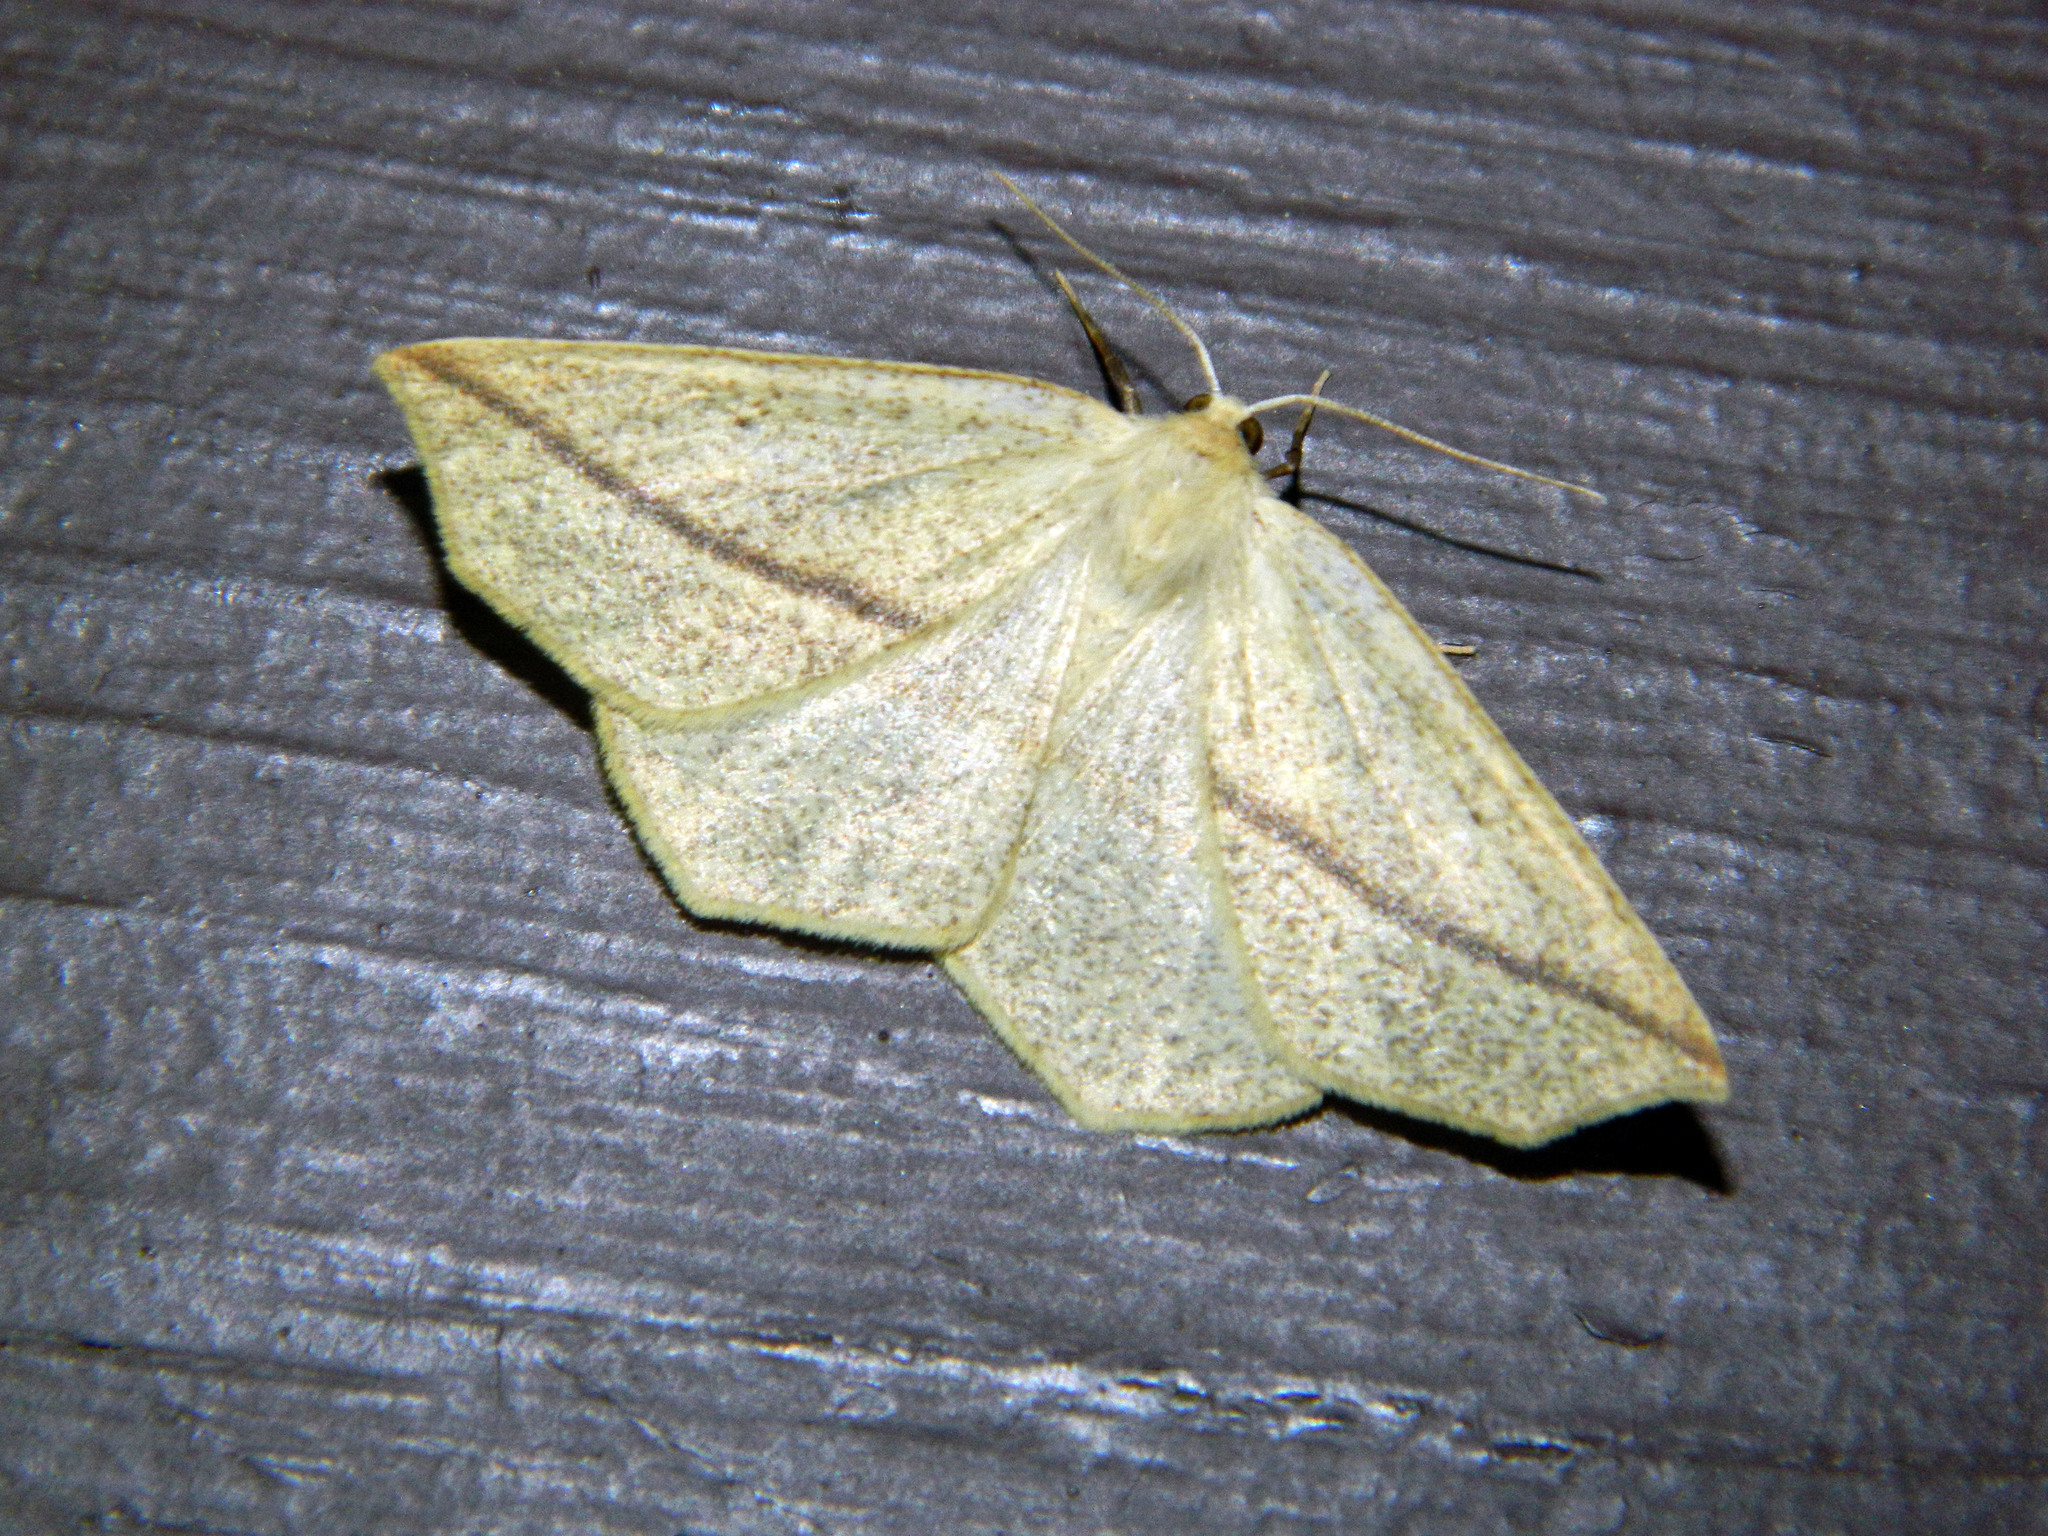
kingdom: Animalia
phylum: Arthropoda
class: Insecta
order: Lepidoptera
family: Geometridae
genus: Tetracis
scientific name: Tetracis crocallata
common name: Yellow slant-line
